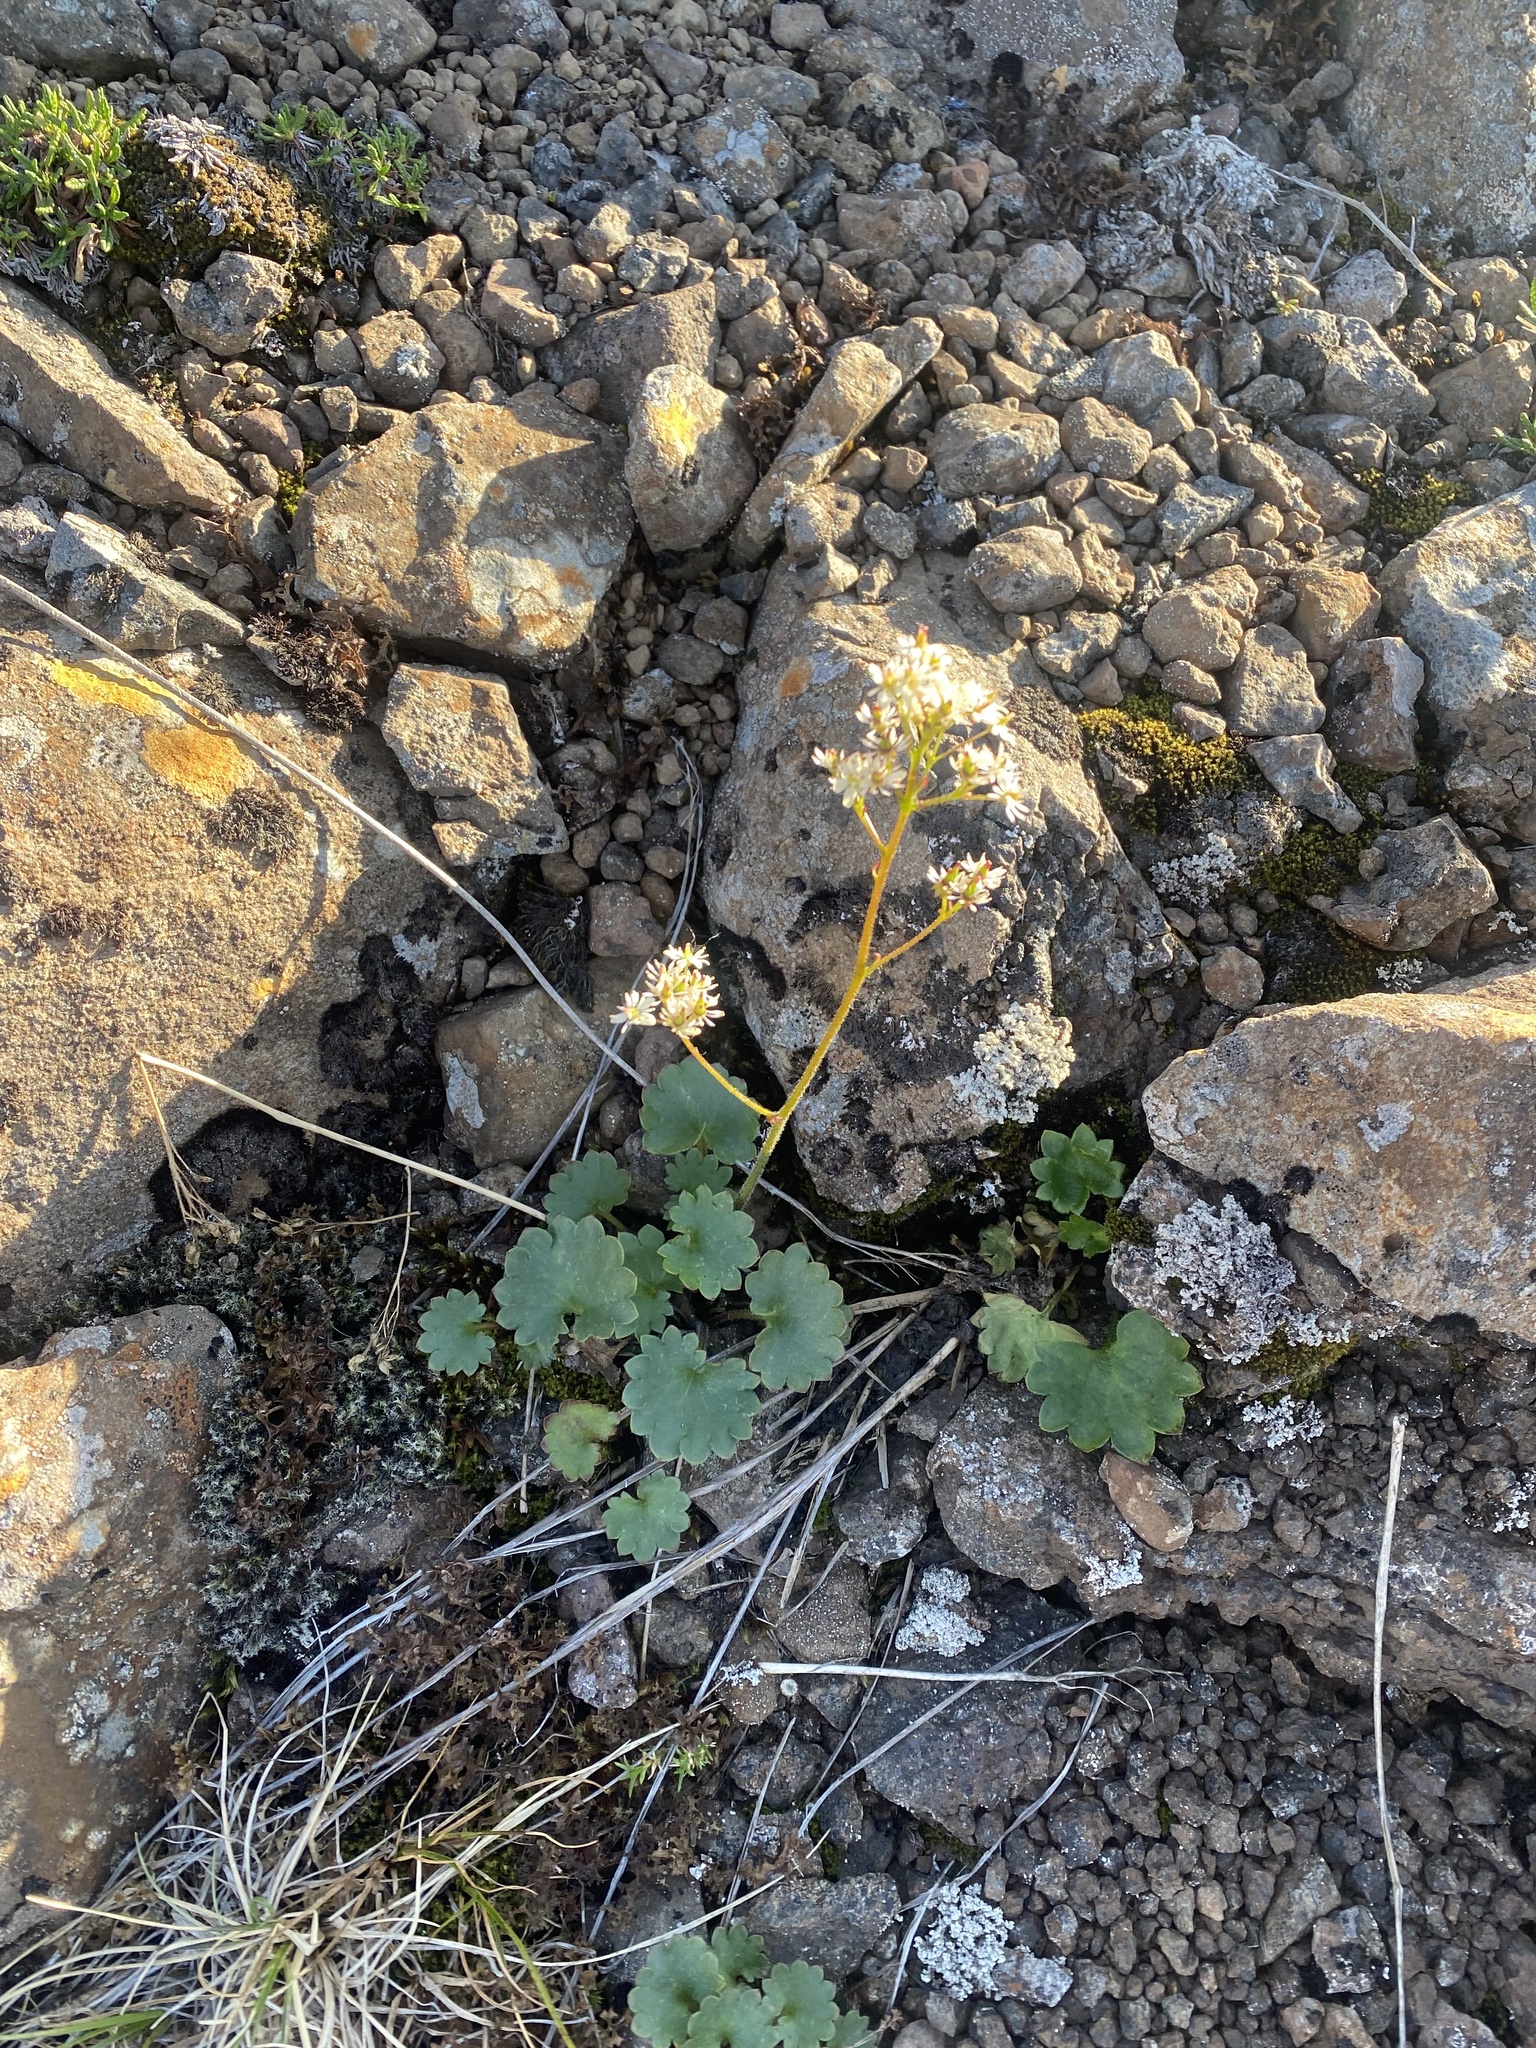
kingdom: Plantae
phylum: Tracheophyta
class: Magnoliopsida
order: Saxifragales
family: Saxifragaceae
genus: Micranthes
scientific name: Micranthes nelsoniana
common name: Nelson's saxifrage
